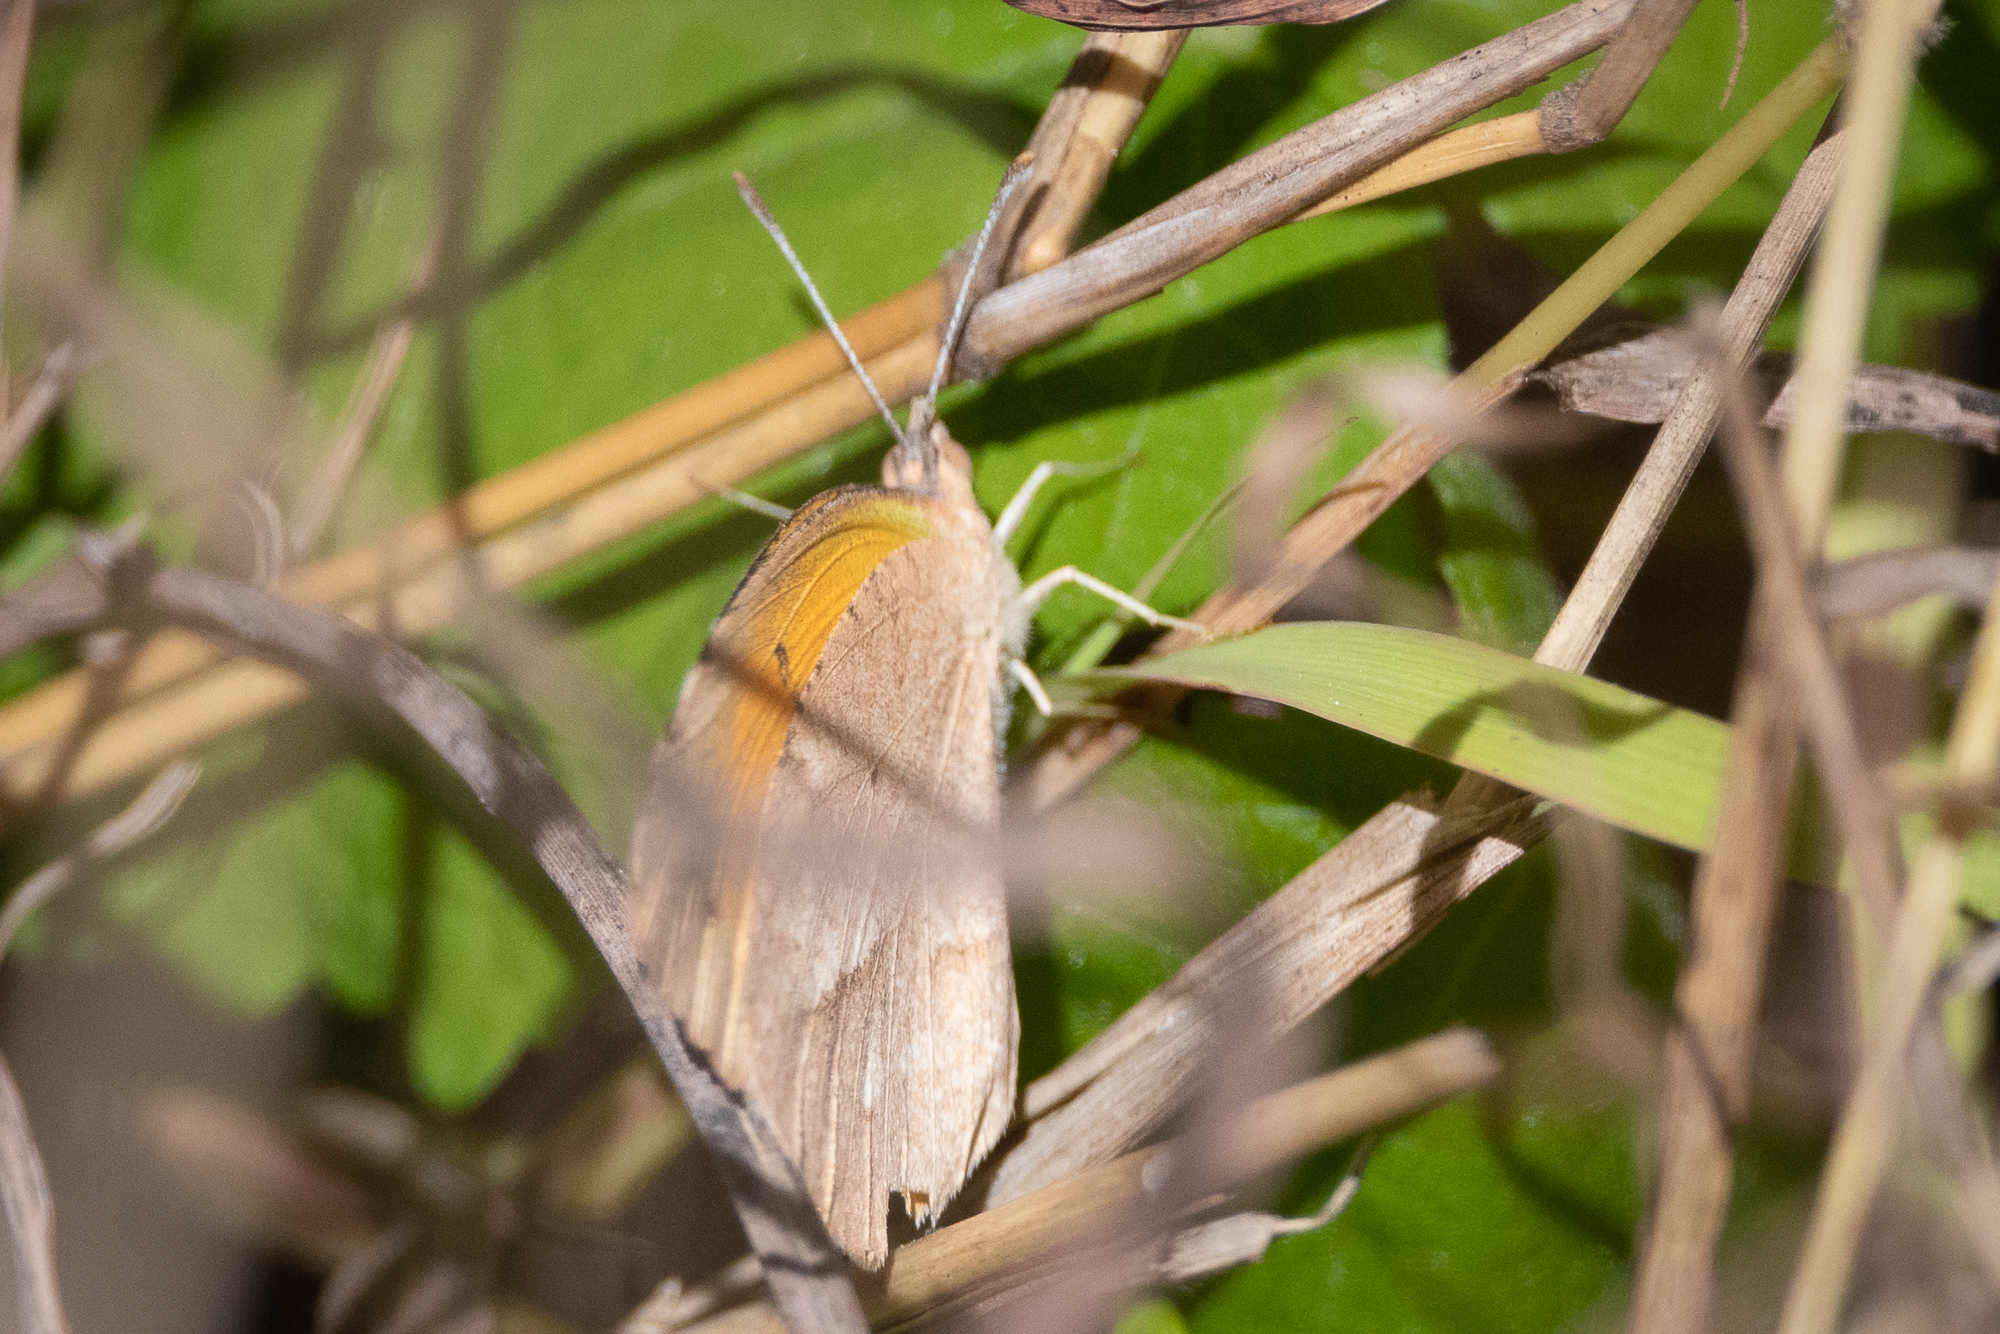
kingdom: Animalia
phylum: Arthropoda
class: Insecta
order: Lepidoptera
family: Pieridae
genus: Abaeis
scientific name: Abaeis nicippe
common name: Sleepy orange
